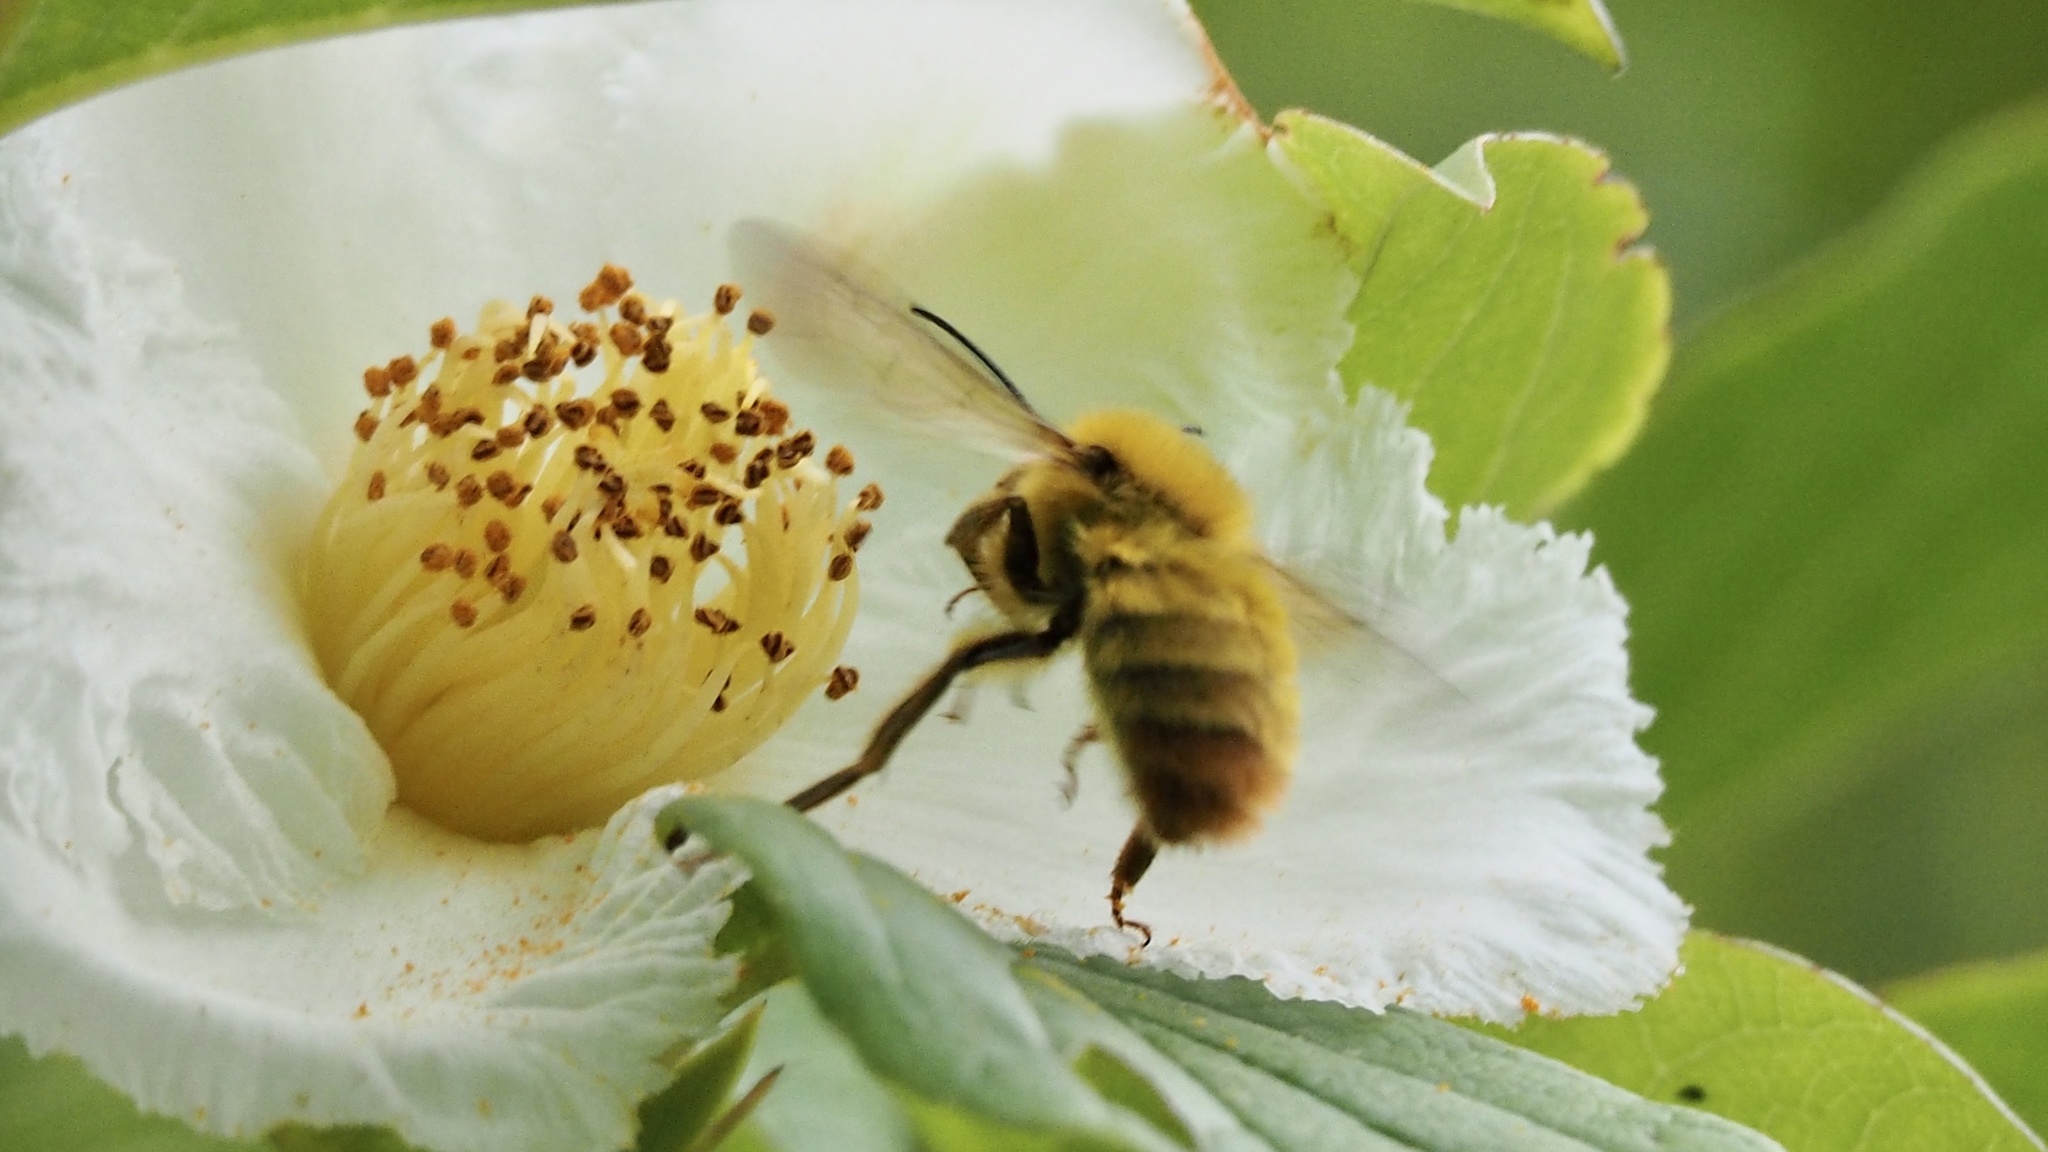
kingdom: Animalia
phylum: Arthropoda
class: Insecta
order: Hymenoptera
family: Apidae
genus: Bombus
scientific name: Bombus ardens
